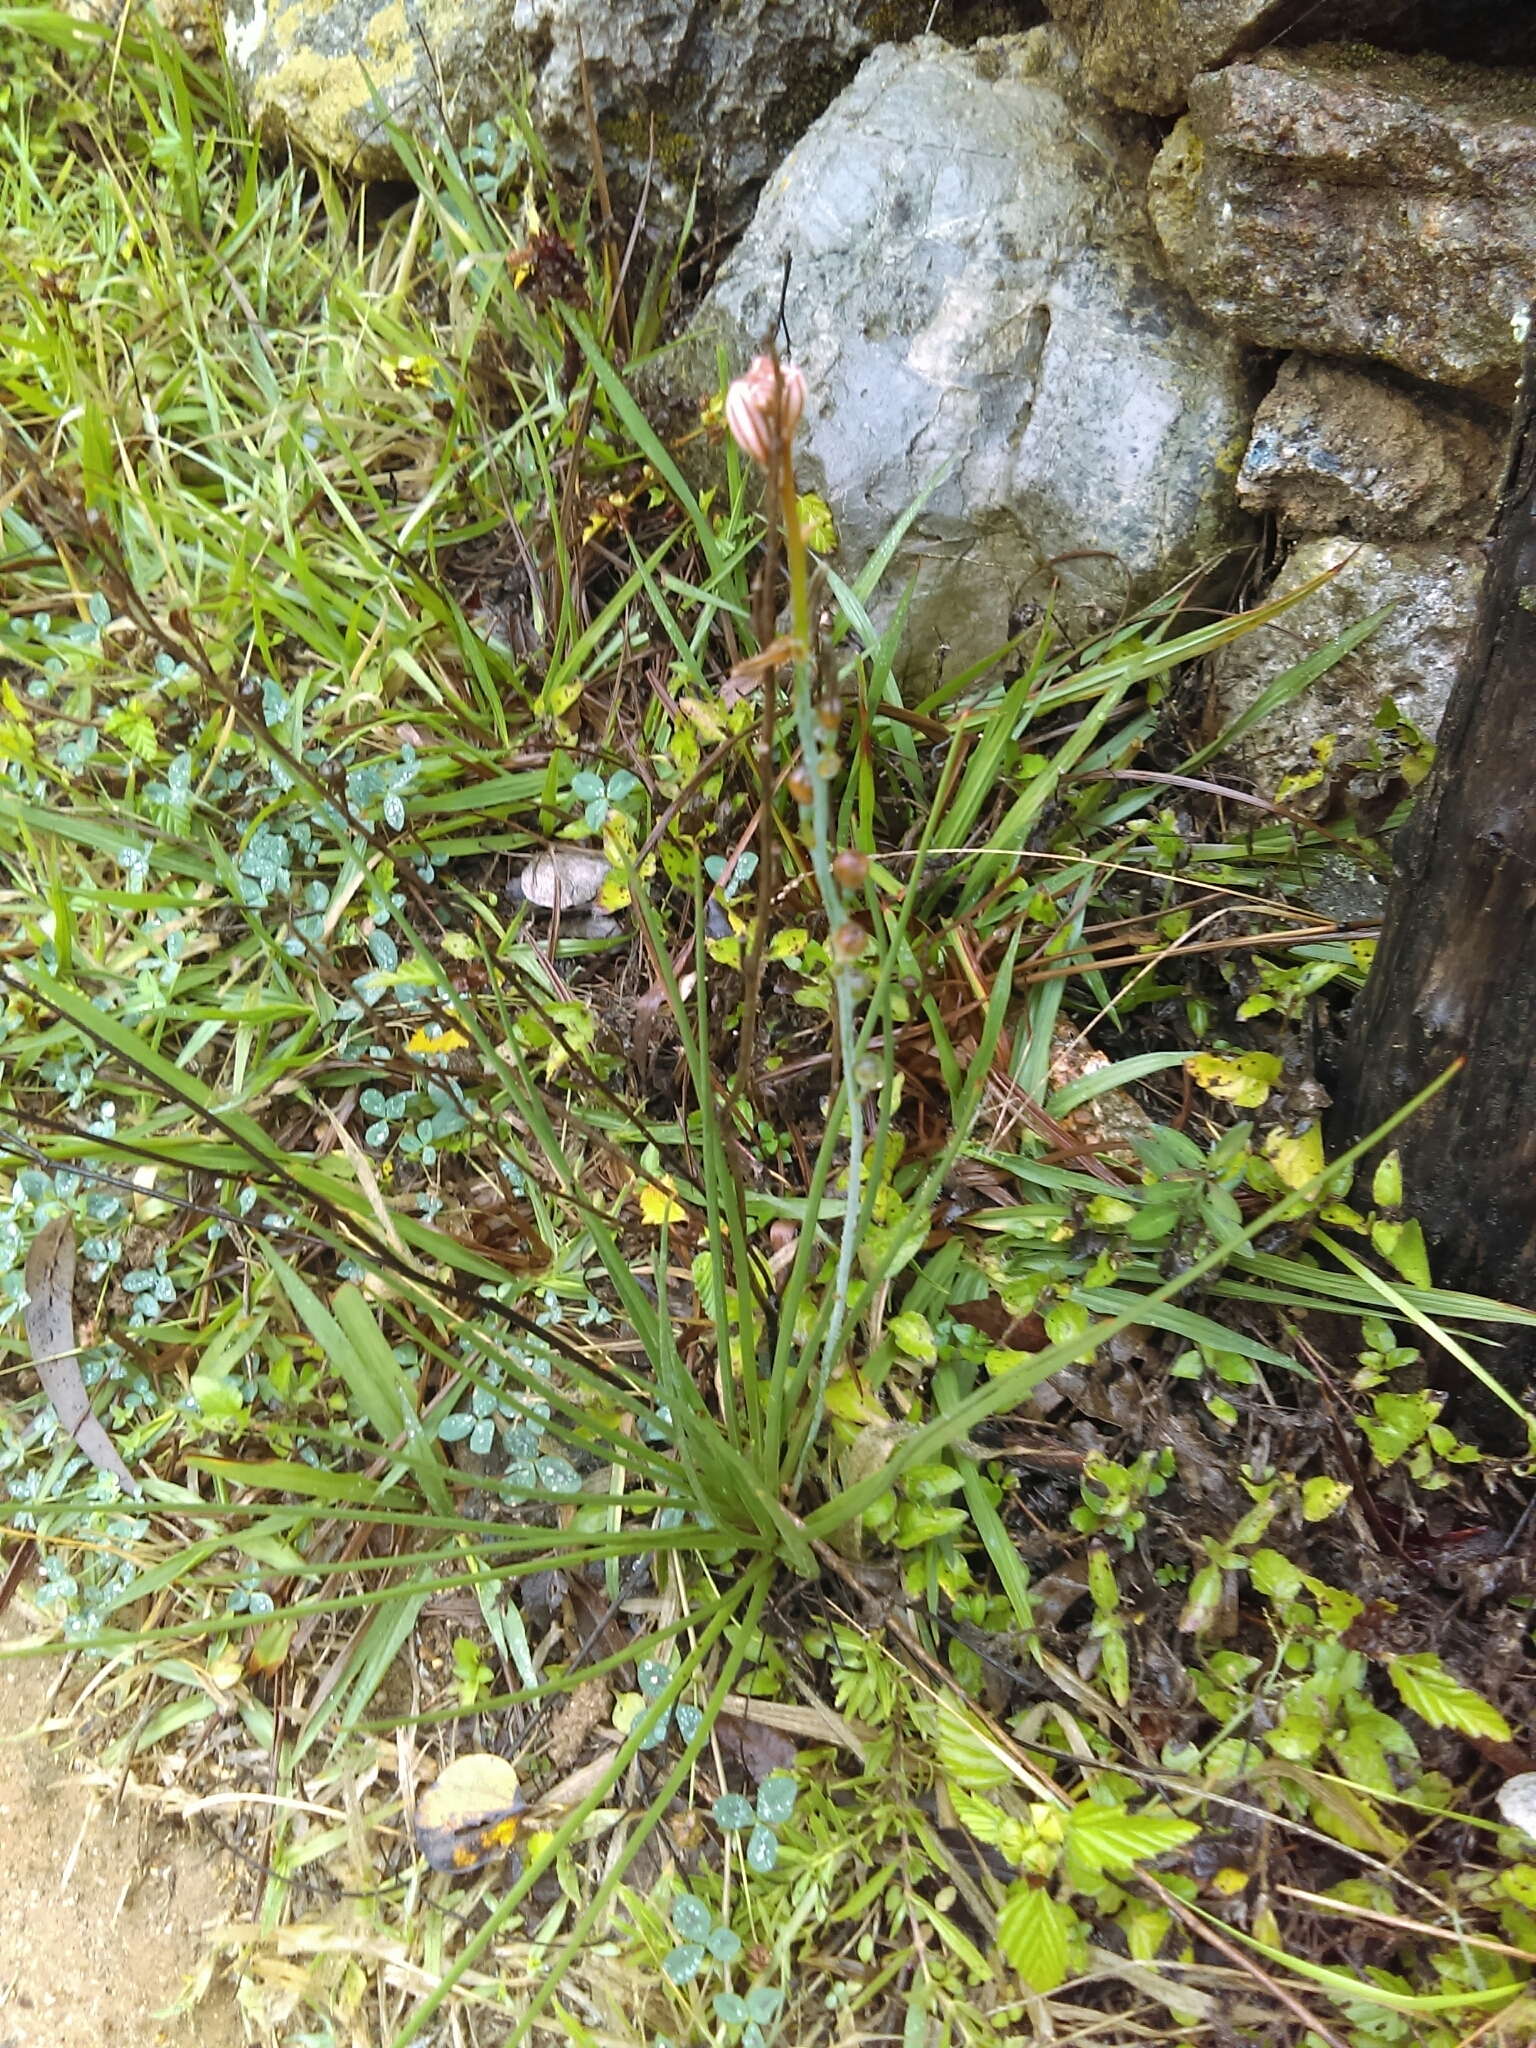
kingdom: Plantae
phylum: Tracheophyta
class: Liliopsida
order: Asparagales
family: Asphodelaceae
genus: Asphodelus
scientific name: Asphodelus fistulosus
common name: Onionweed
